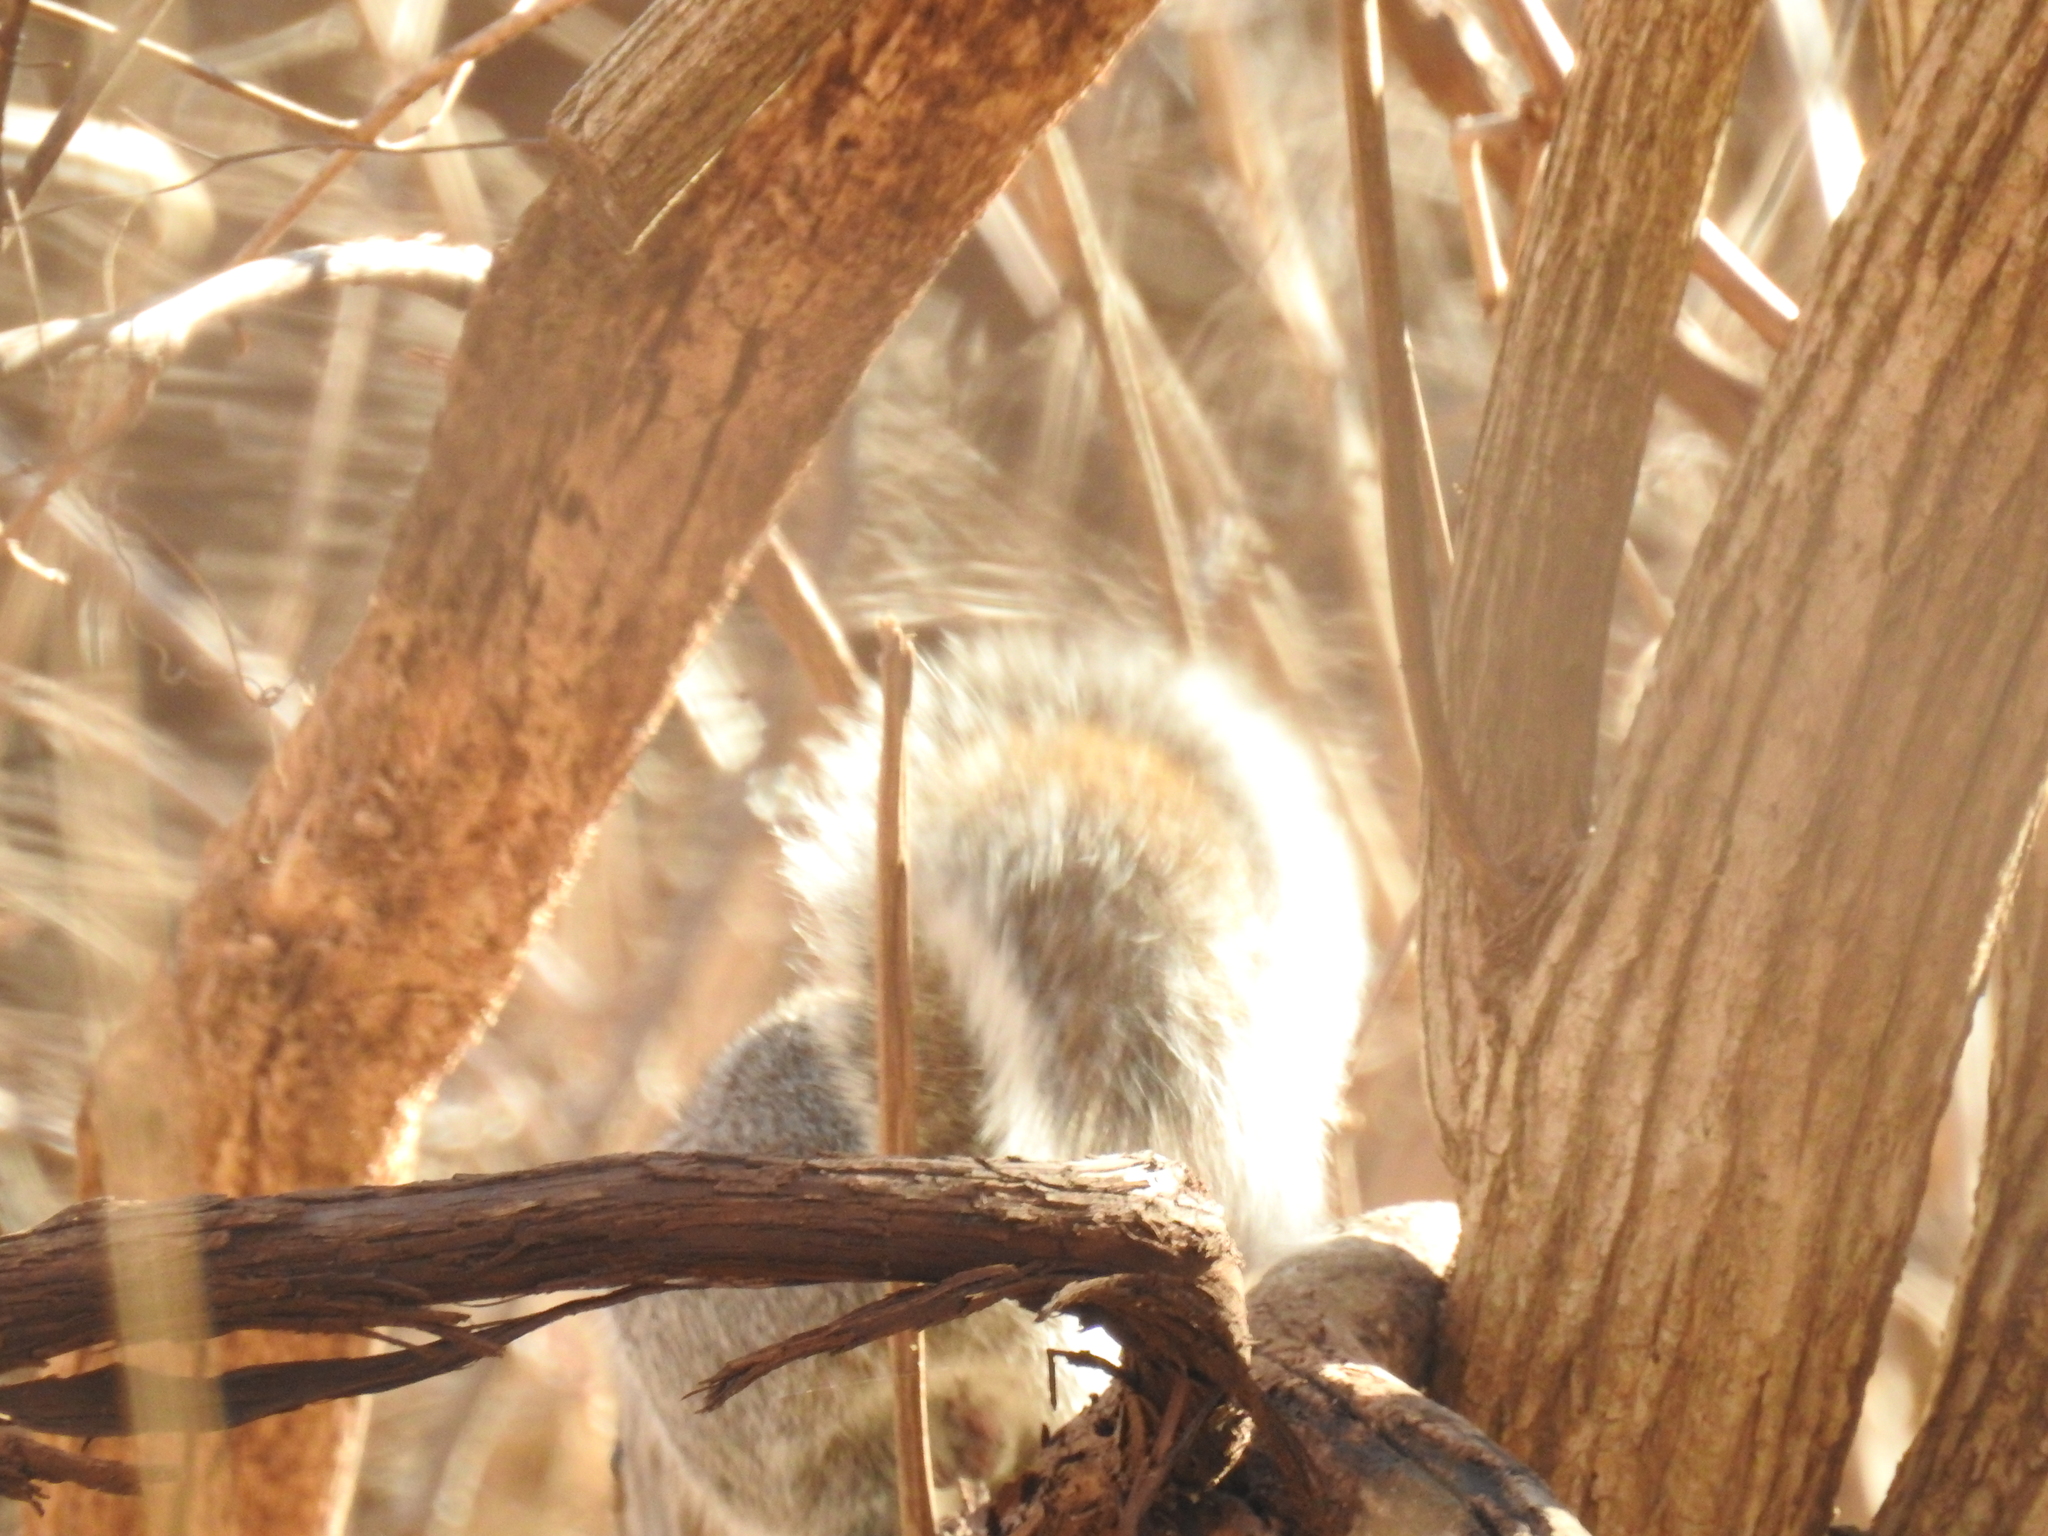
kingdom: Animalia
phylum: Chordata
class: Mammalia
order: Rodentia
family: Sciuridae
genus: Sciurus
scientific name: Sciurus carolinensis
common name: Eastern gray squirrel
